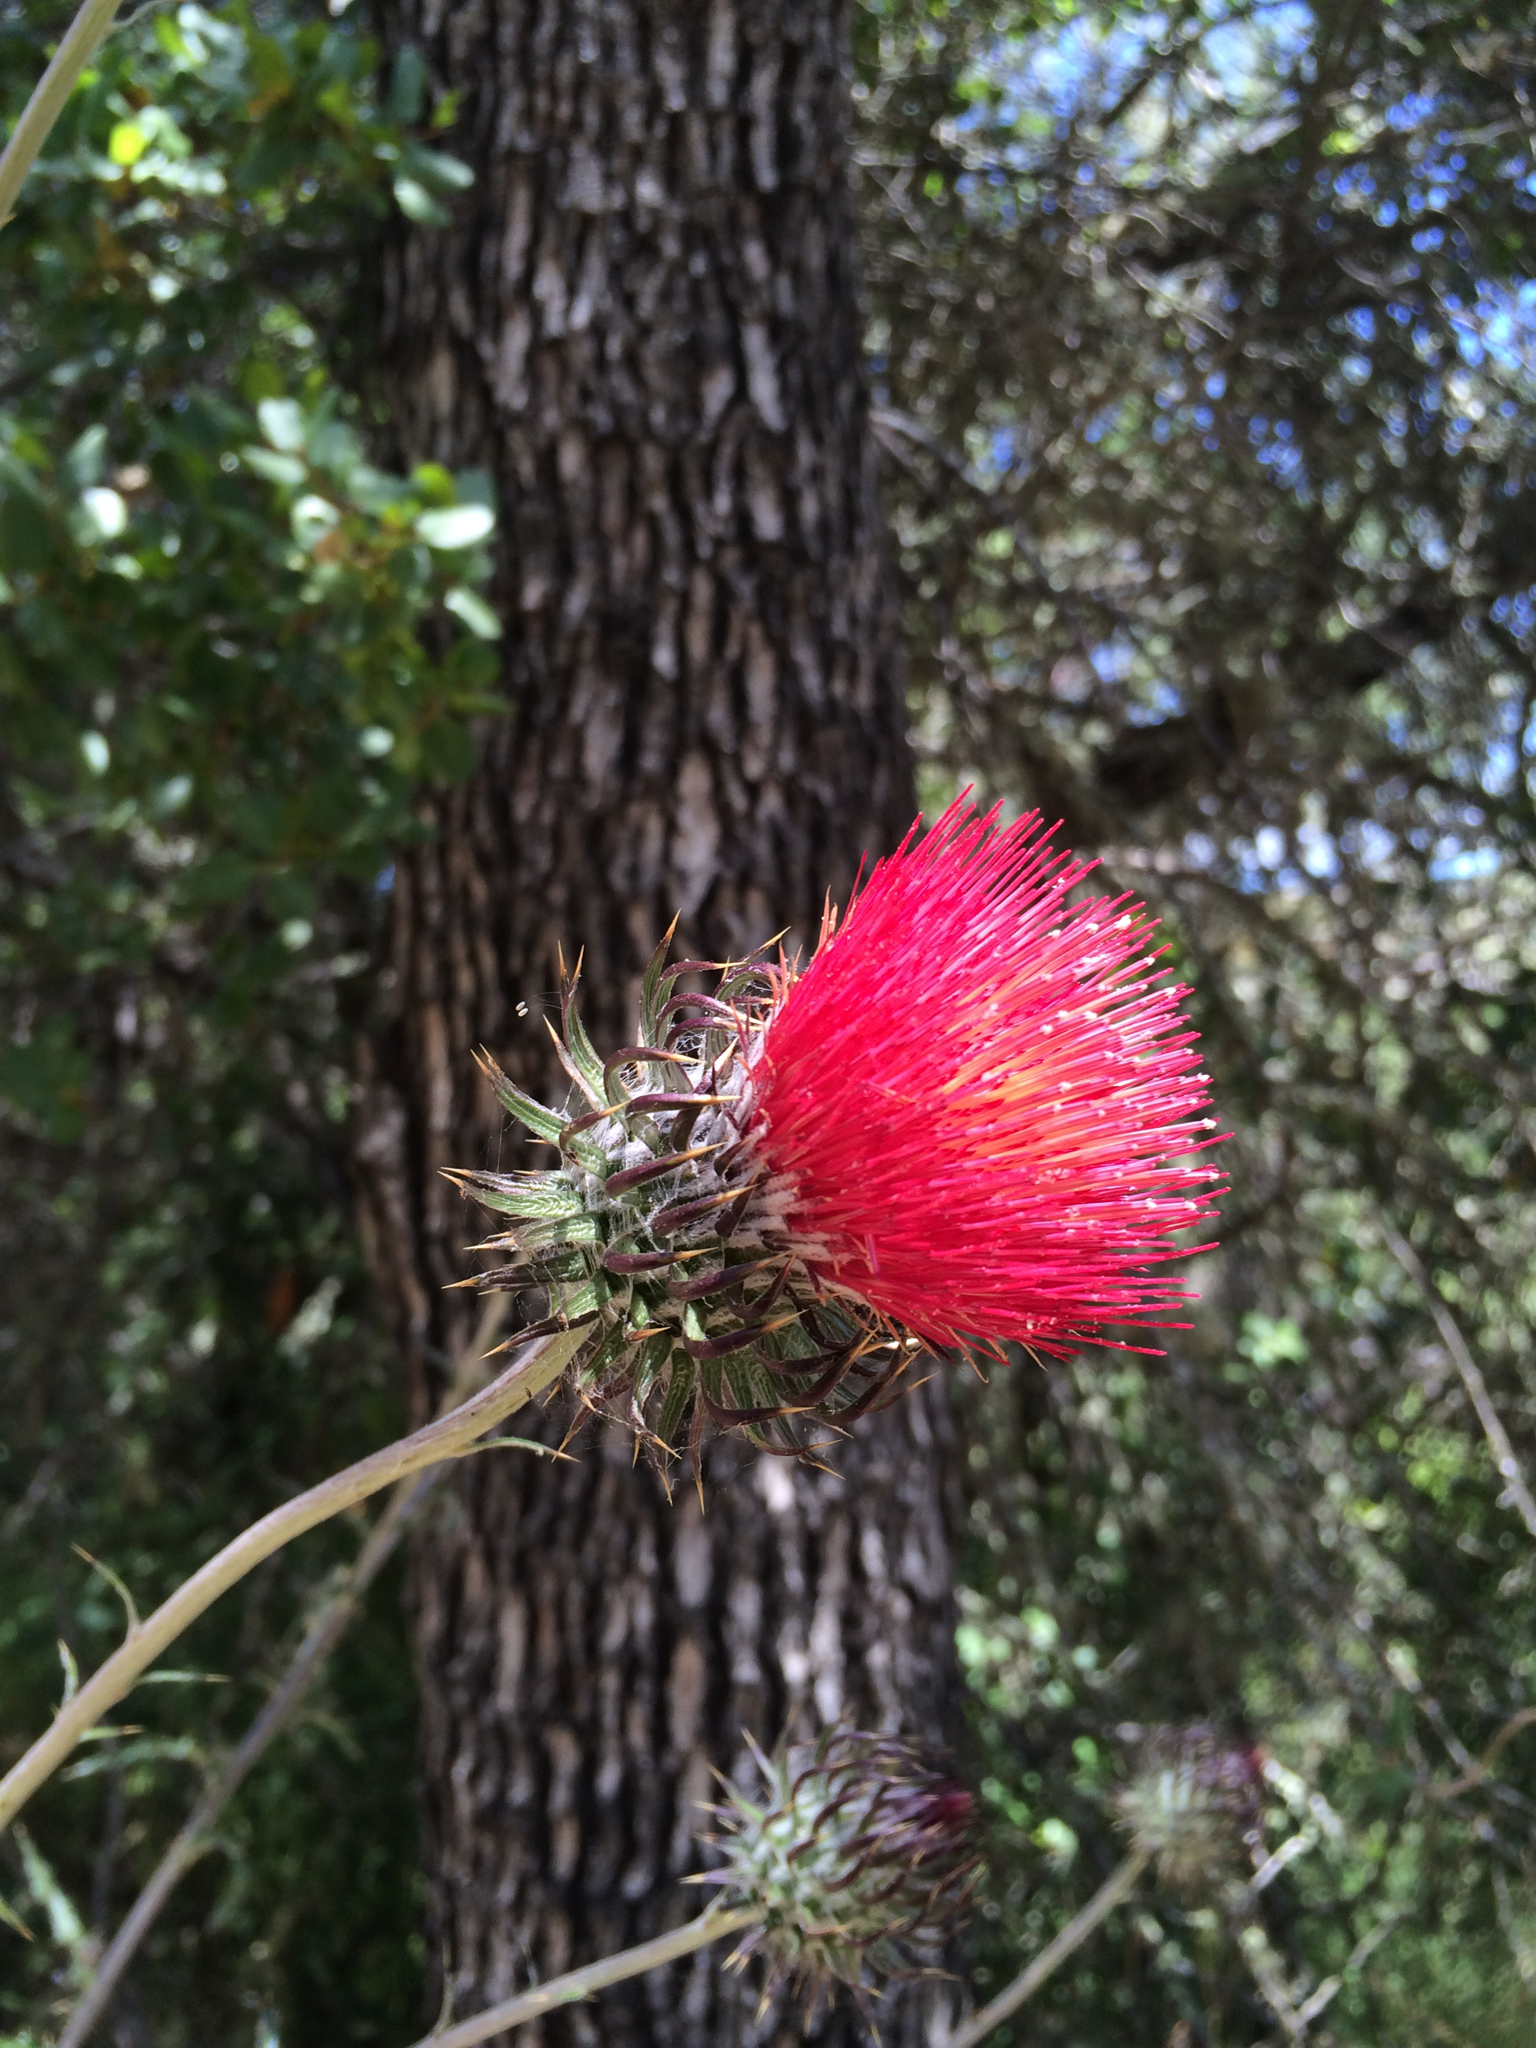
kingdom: Plantae
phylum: Tracheophyta
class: Magnoliopsida
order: Asterales
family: Asteraceae
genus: Cirsium
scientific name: Cirsium occidentale
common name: Western thistle
